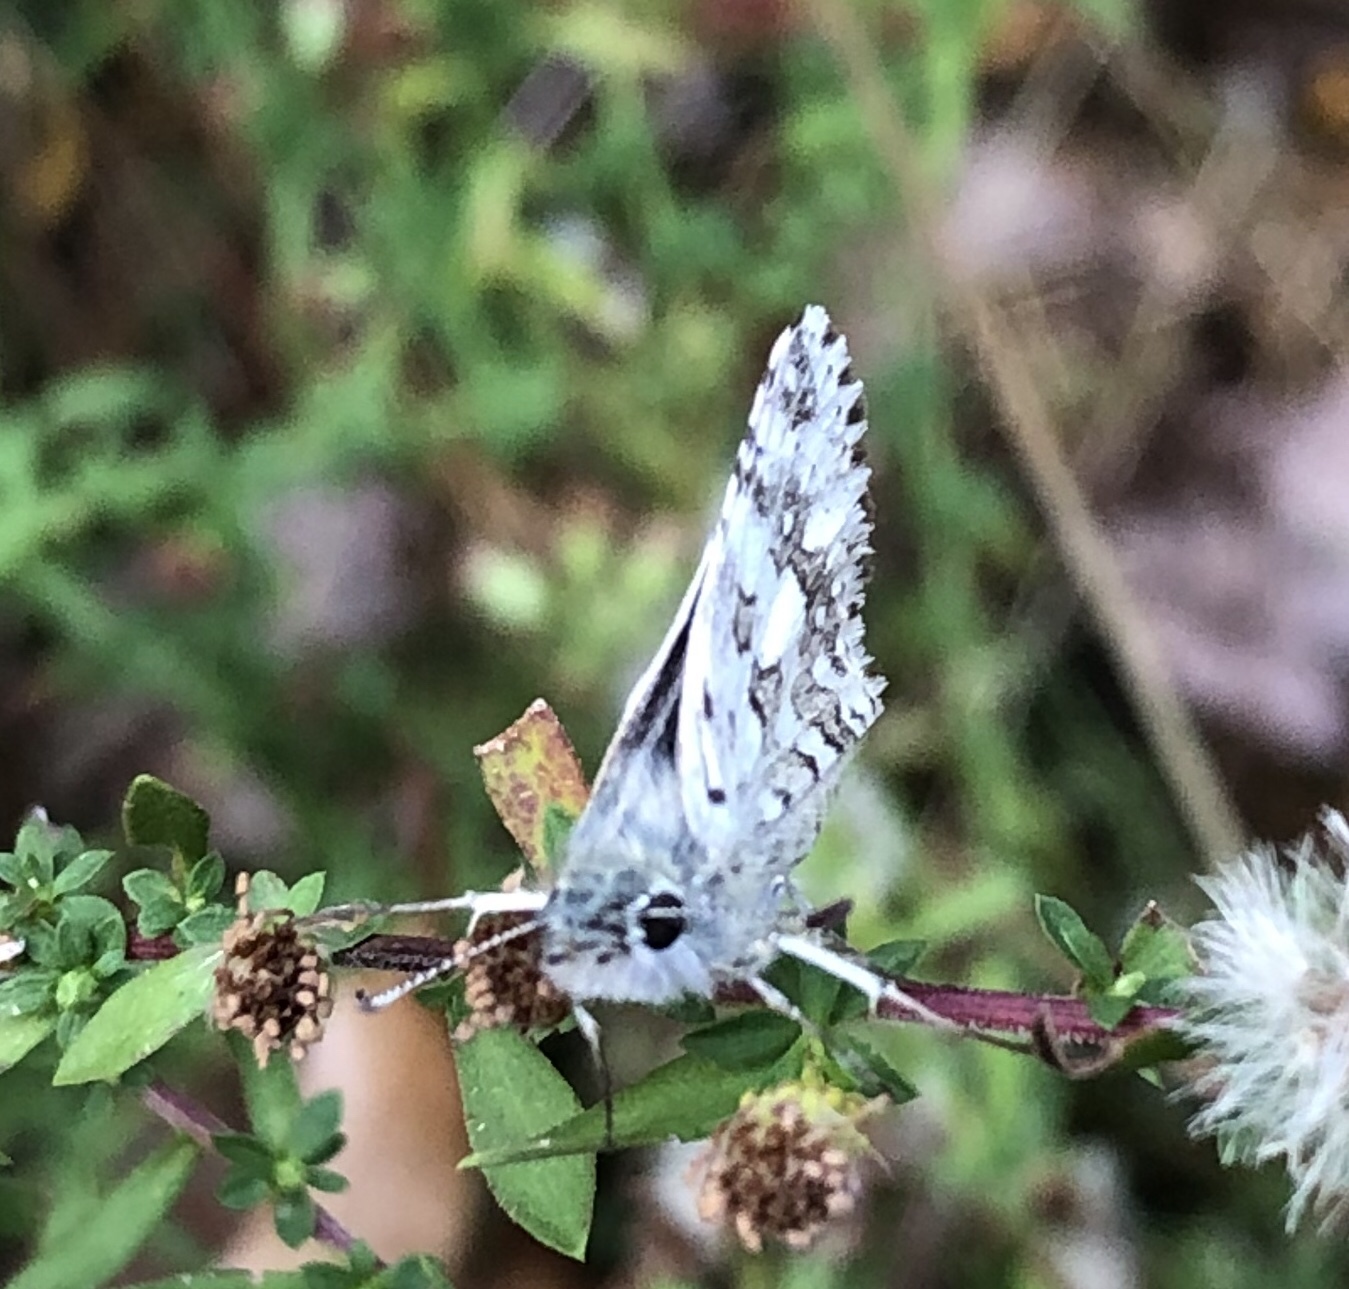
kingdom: Animalia
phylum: Arthropoda
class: Insecta
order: Lepidoptera
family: Hesperiidae
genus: Burnsius
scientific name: Burnsius communis
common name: Common checkered-skipper
